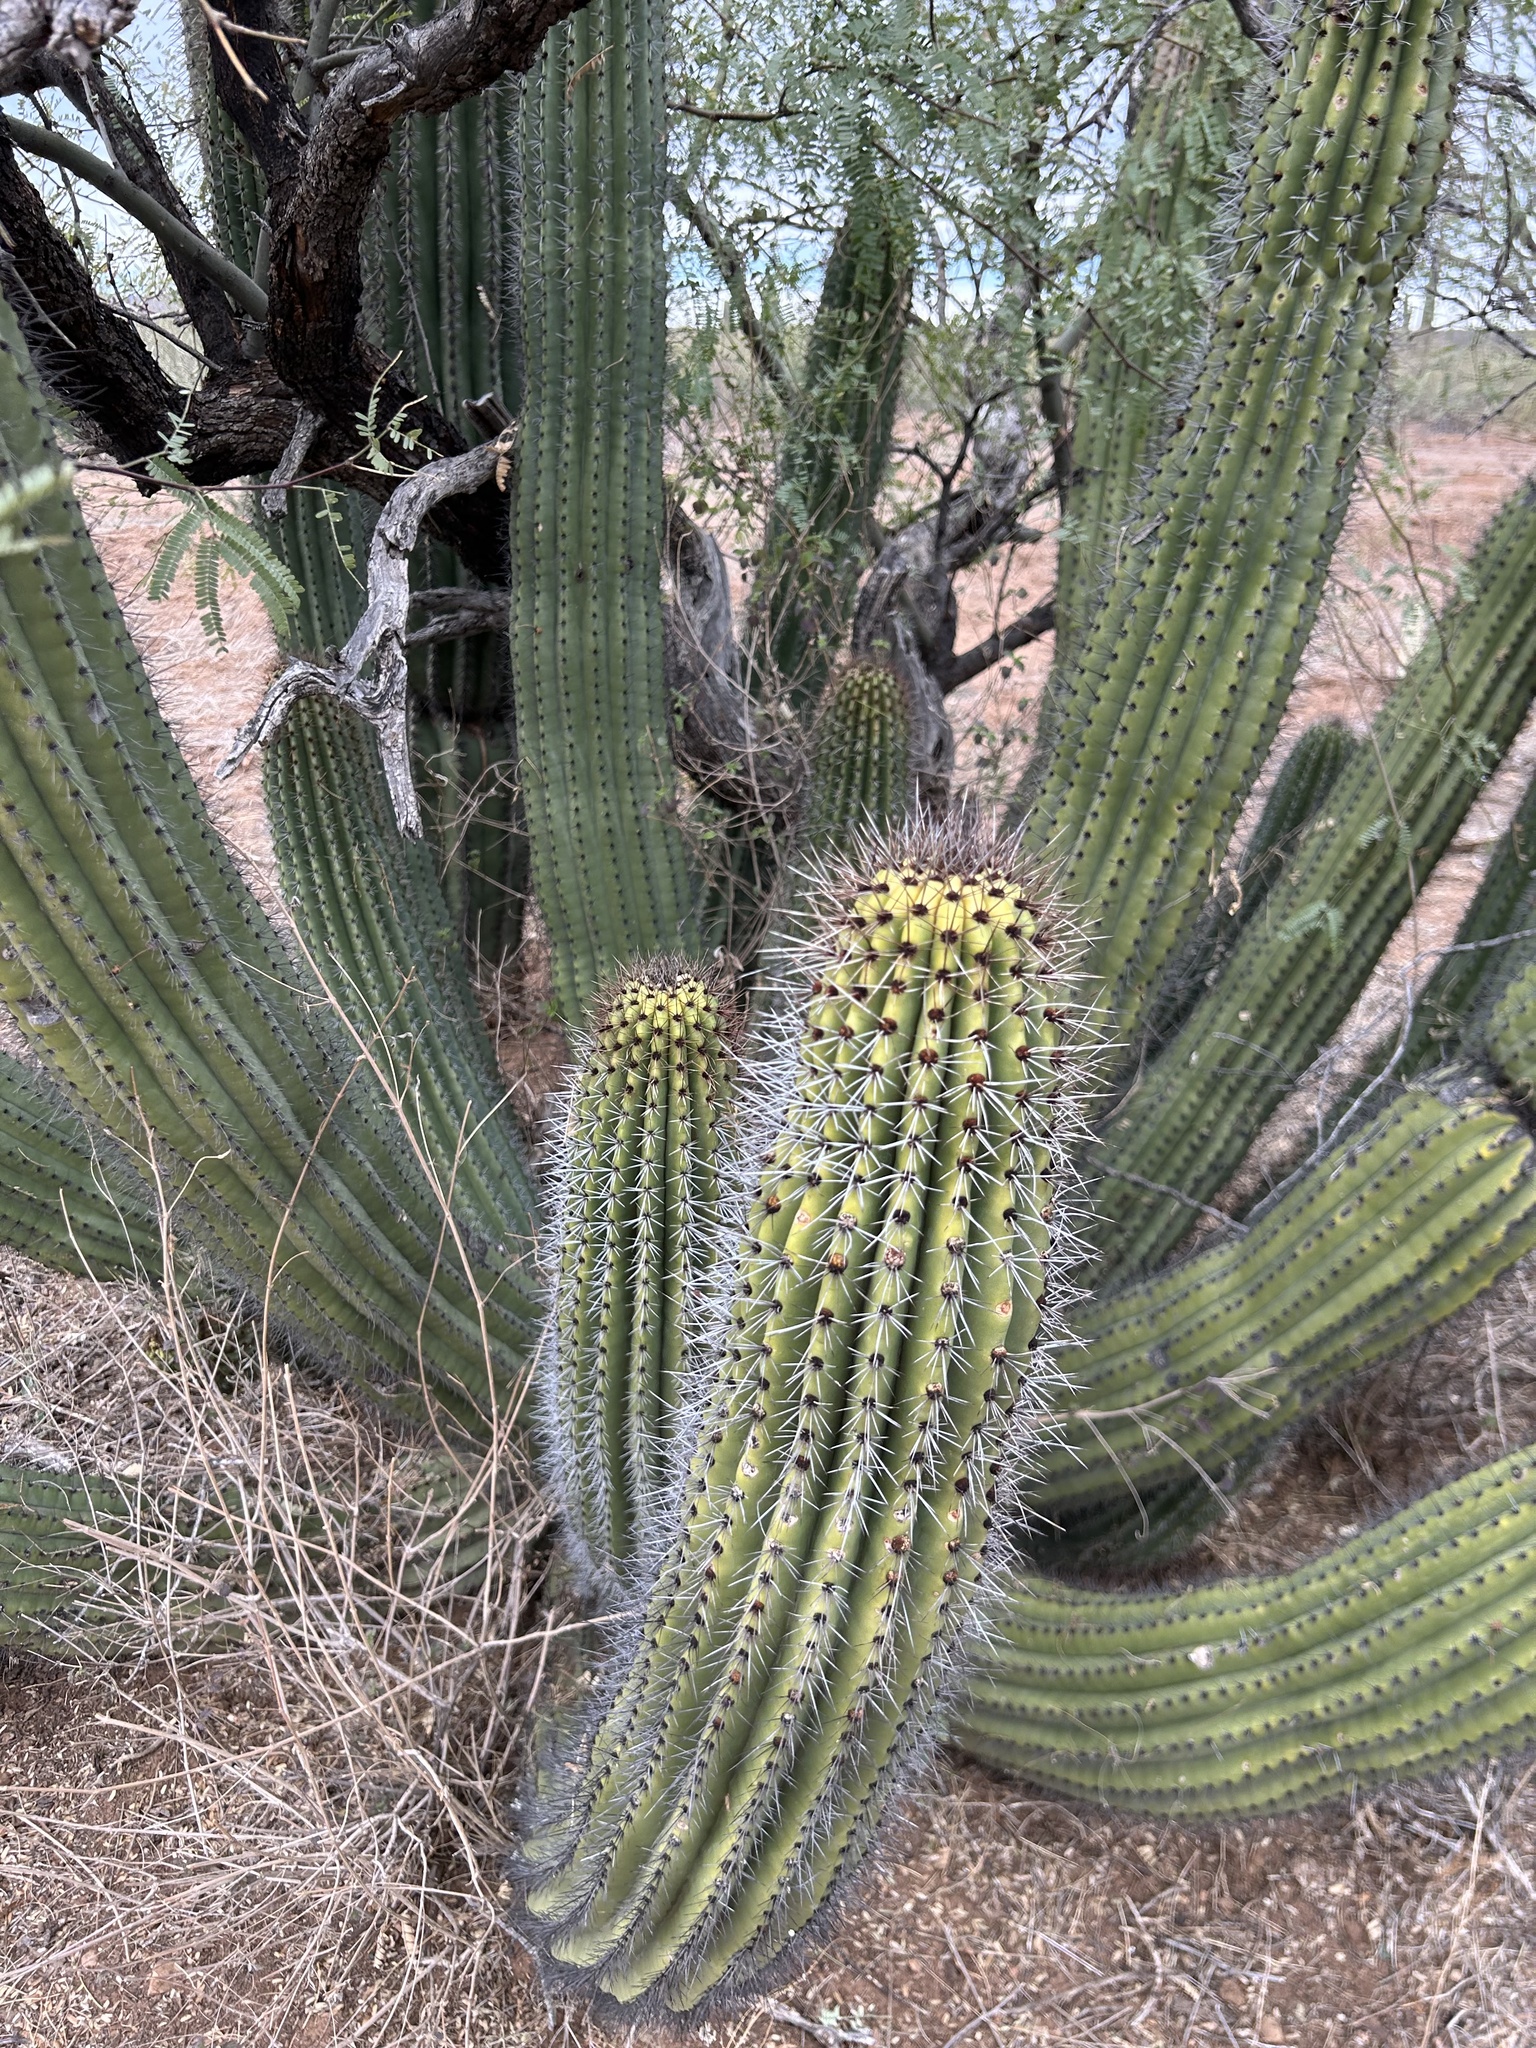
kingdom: Plantae
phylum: Tracheophyta
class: Magnoliopsida
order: Caryophyllales
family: Cactaceae
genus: Stenocereus
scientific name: Stenocereus thurberi
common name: Organ pipe cactus
